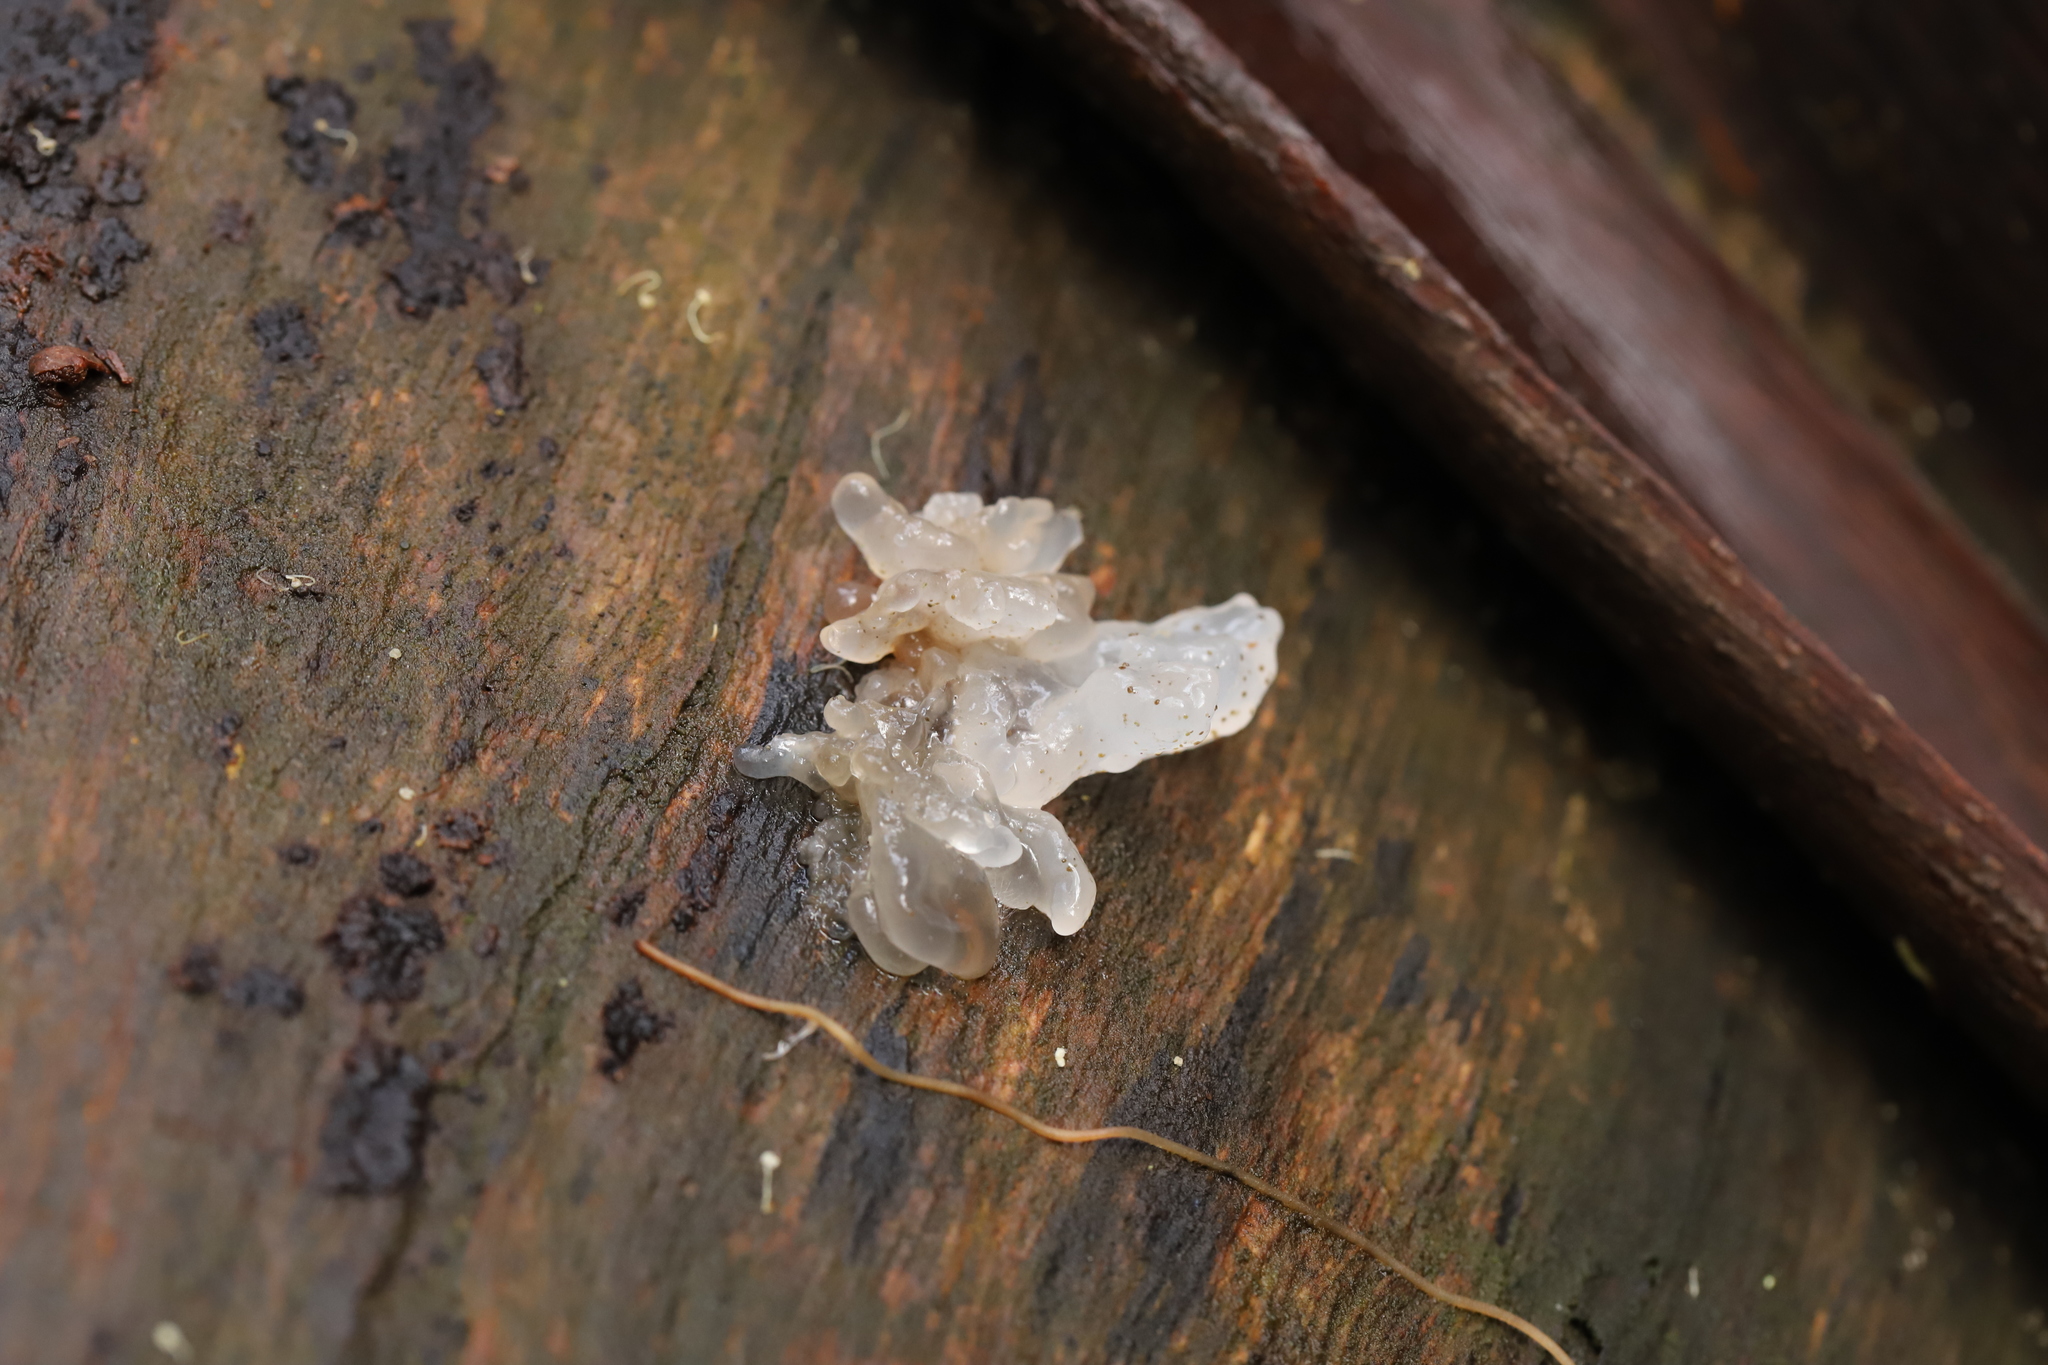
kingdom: Fungi
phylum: Basidiomycota
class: Tremellomycetes
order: Tremellales
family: Tremellaceae
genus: Tremella
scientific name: Tremella fuciformis
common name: Snow fungus
